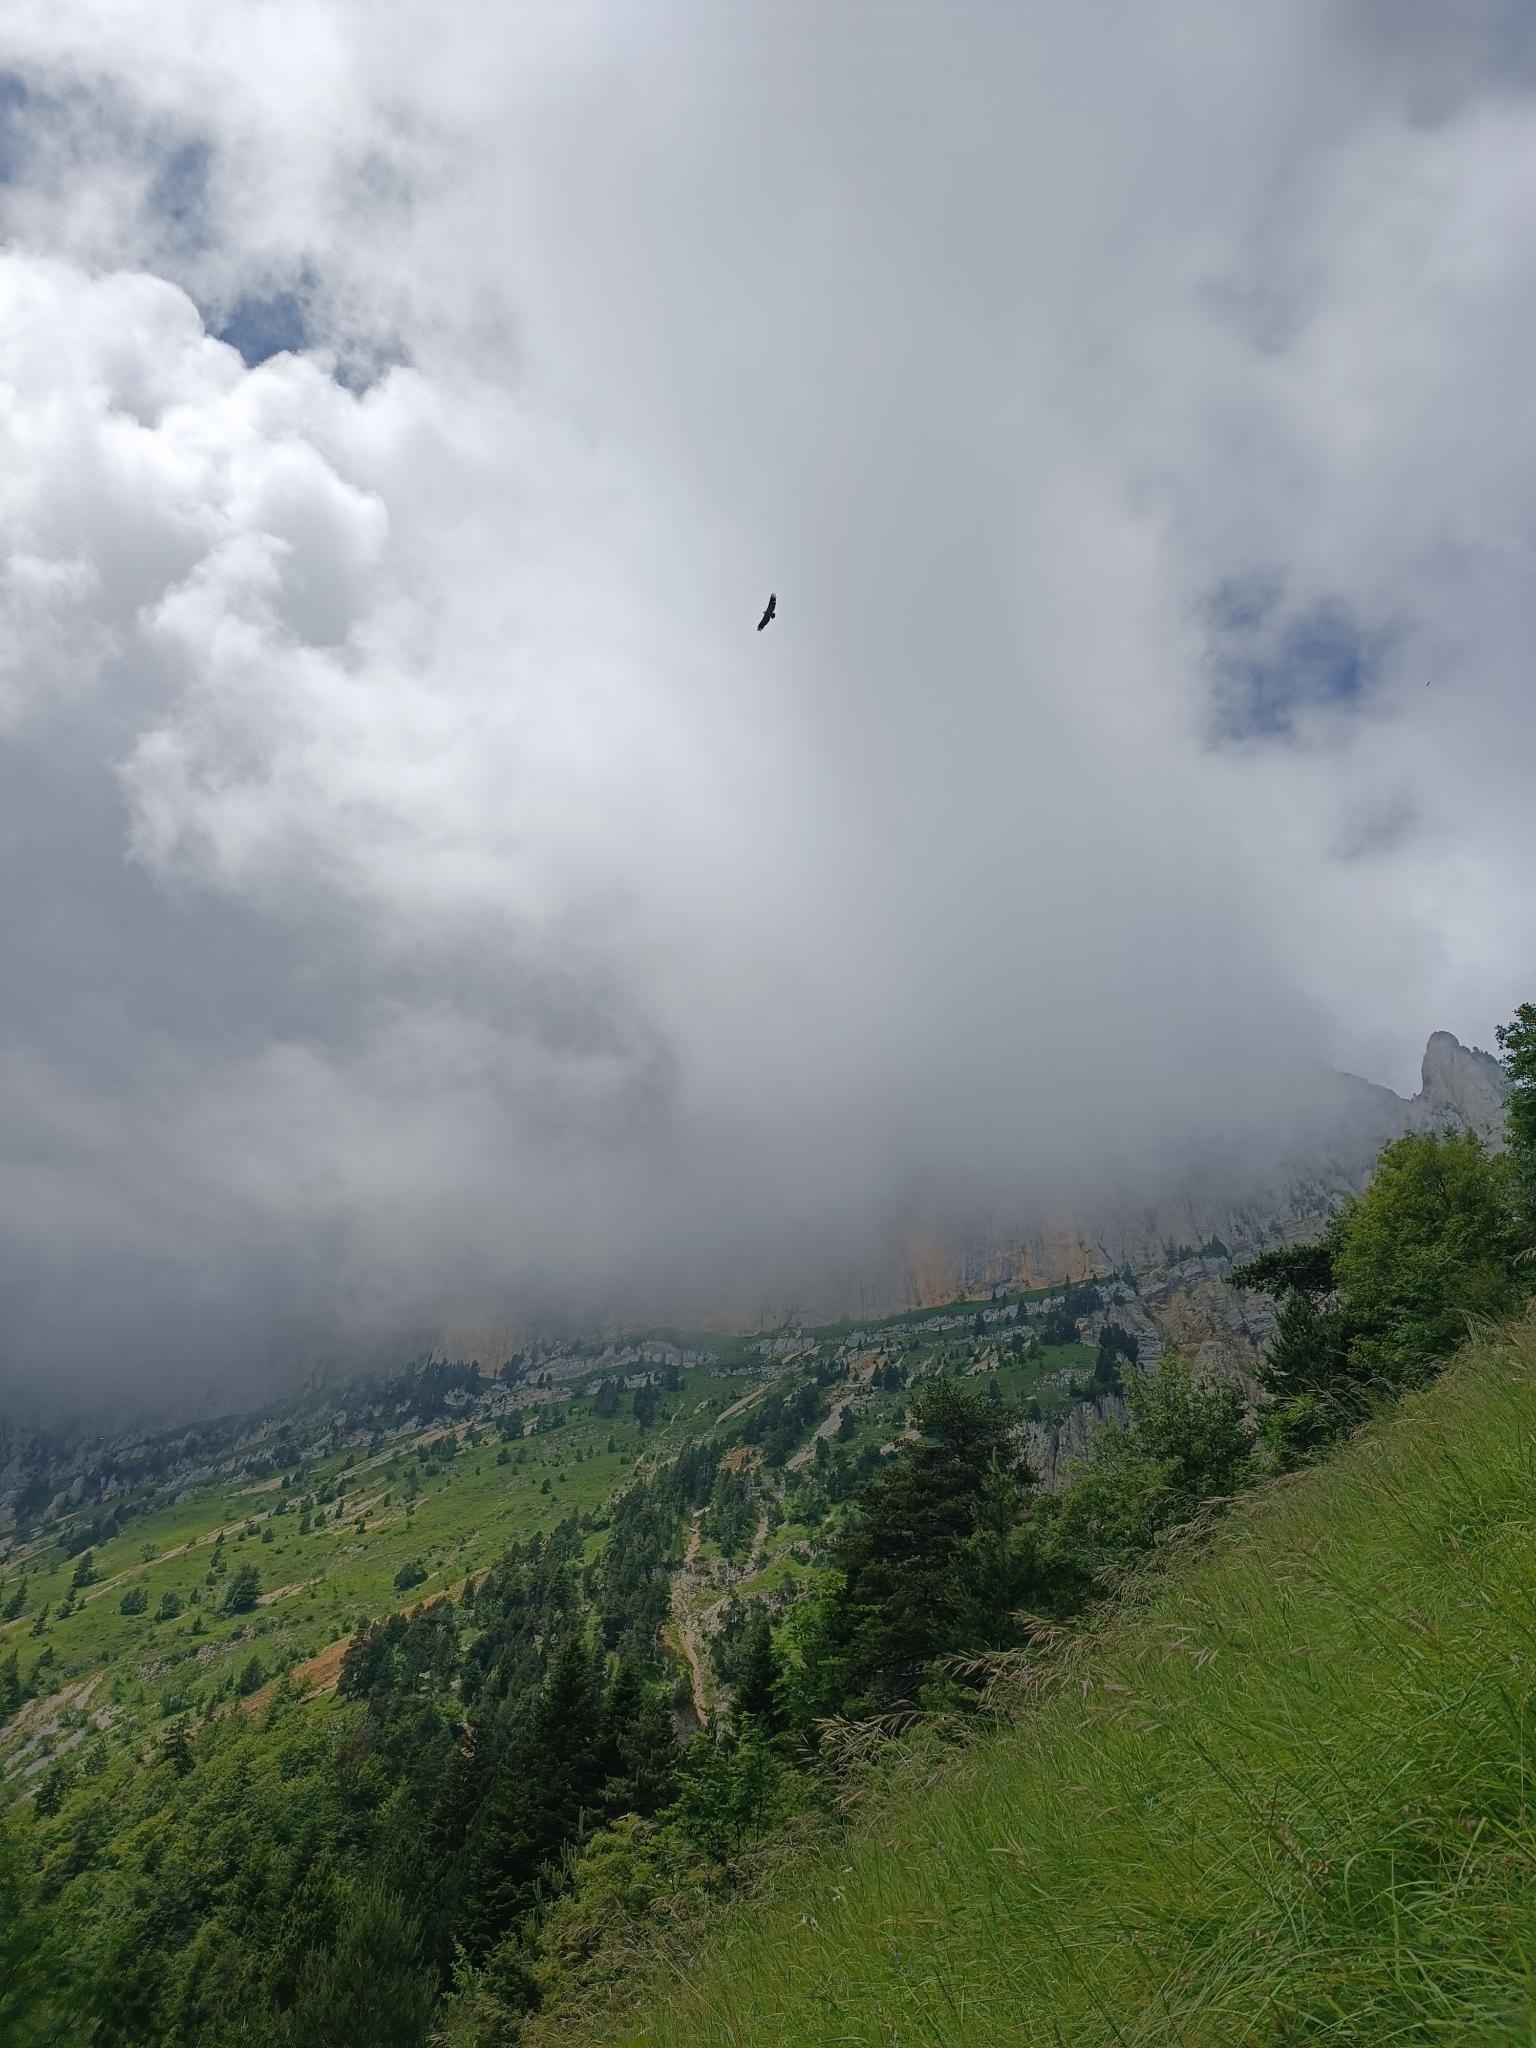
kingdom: Animalia
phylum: Chordata
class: Aves
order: Accipitriformes
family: Accipitridae
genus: Gyps
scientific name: Gyps fulvus
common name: Griffon vulture
